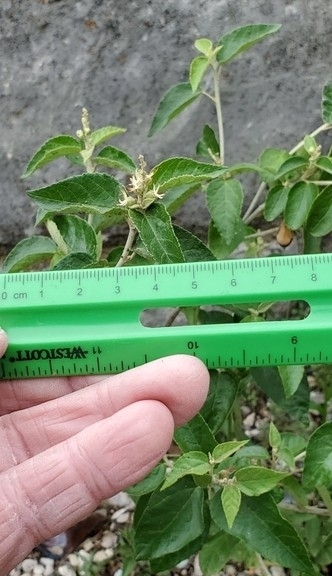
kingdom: Plantae
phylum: Tracheophyta
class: Magnoliopsida
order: Malpighiales
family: Euphorbiaceae
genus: Croton
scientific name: Croton fruticulosus
